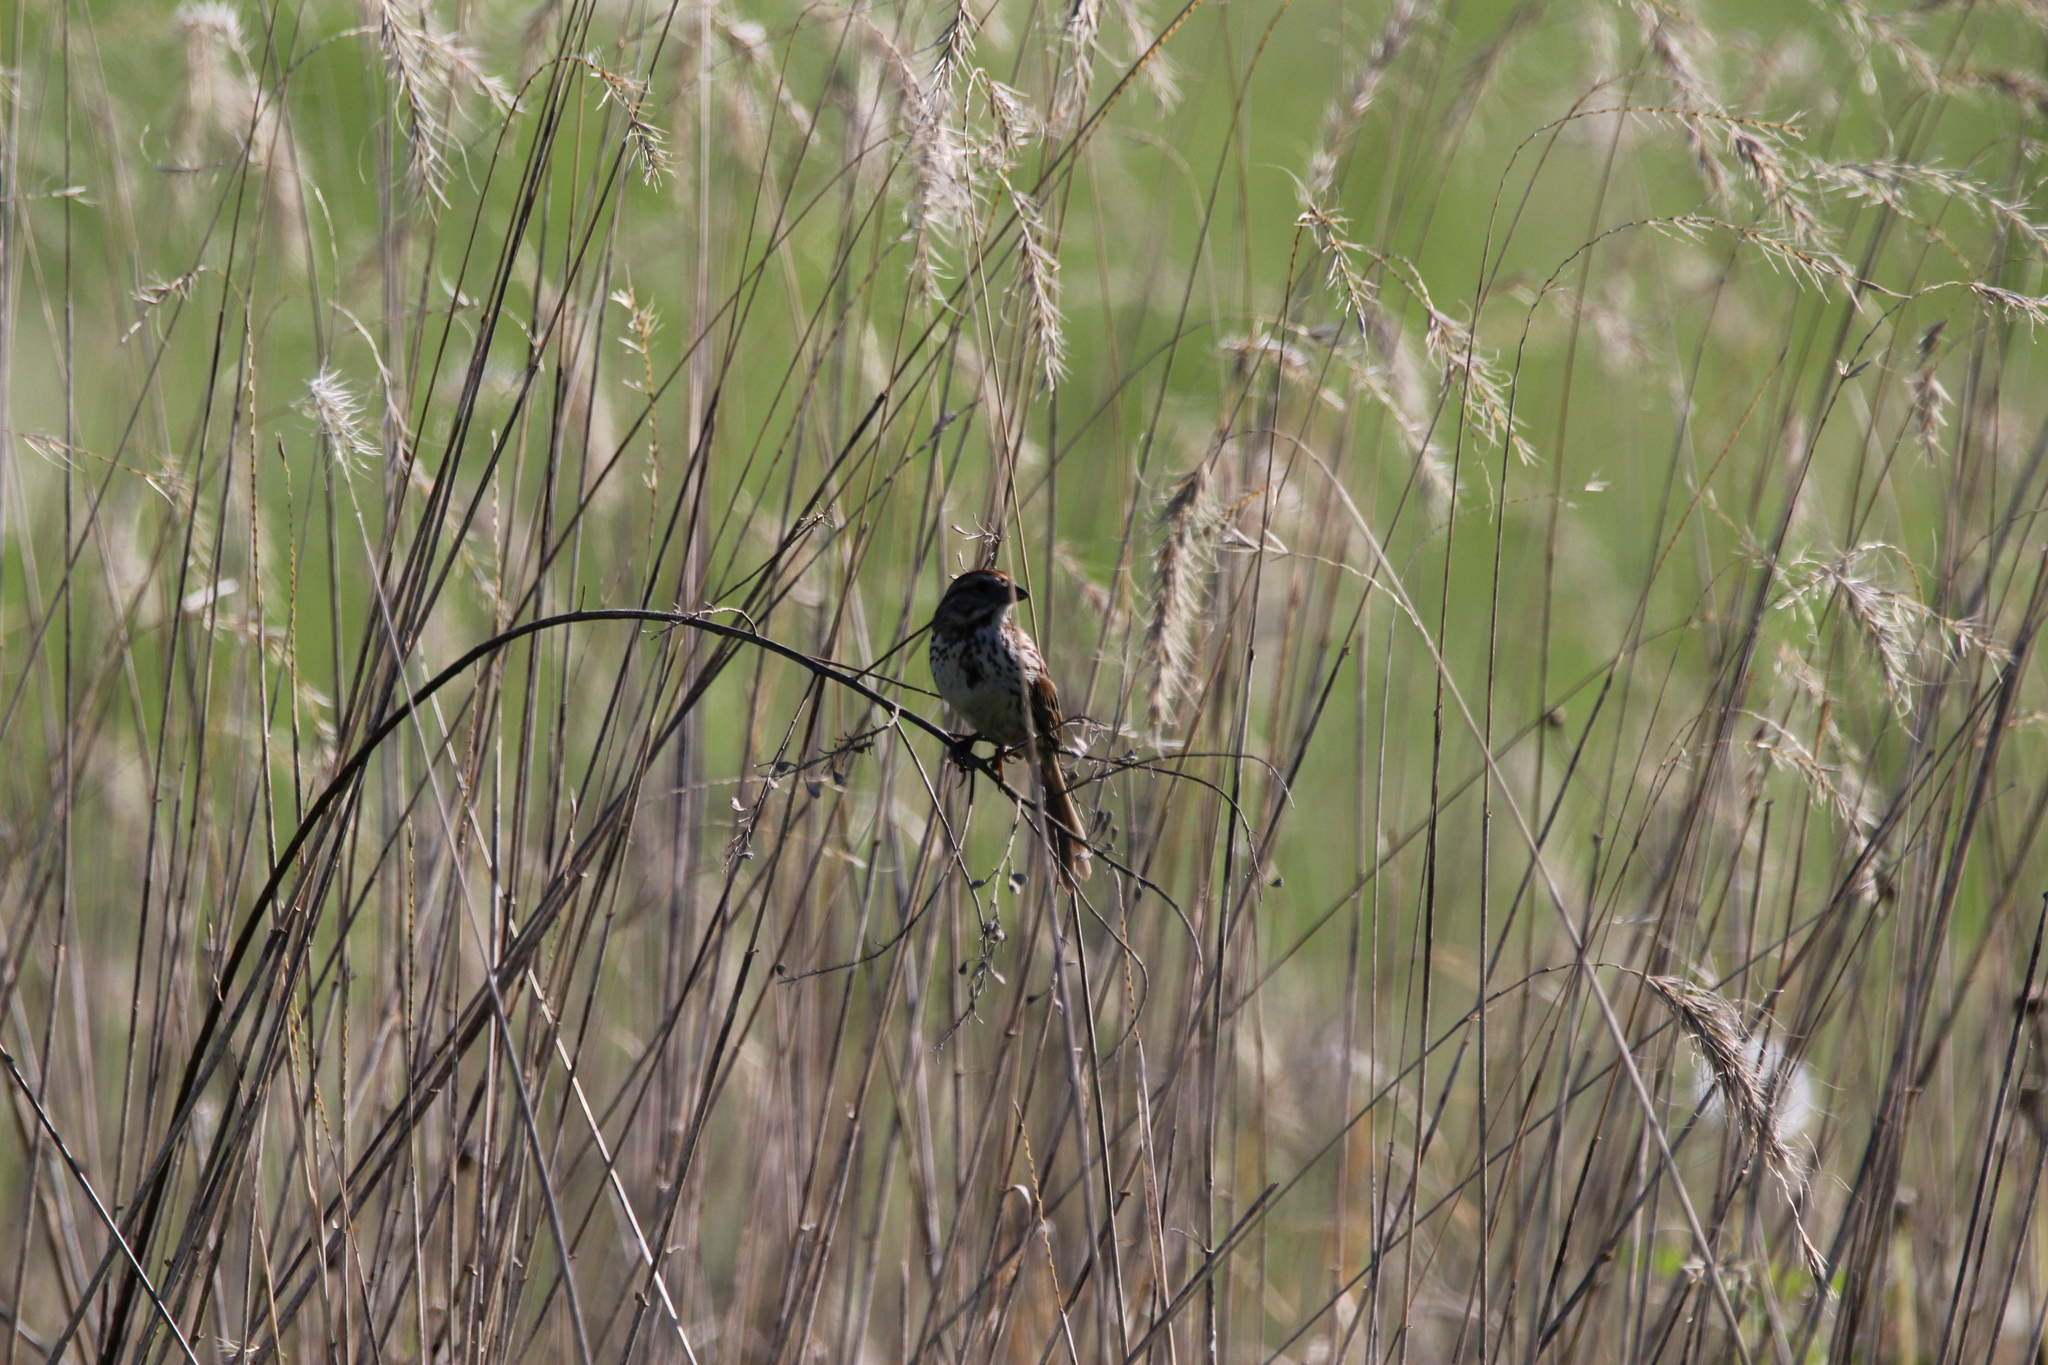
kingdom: Animalia
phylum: Chordata
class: Aves
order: Passeriformes
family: Passerellidae
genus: Melospiza
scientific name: Melospiza melodia
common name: Song sparrow
